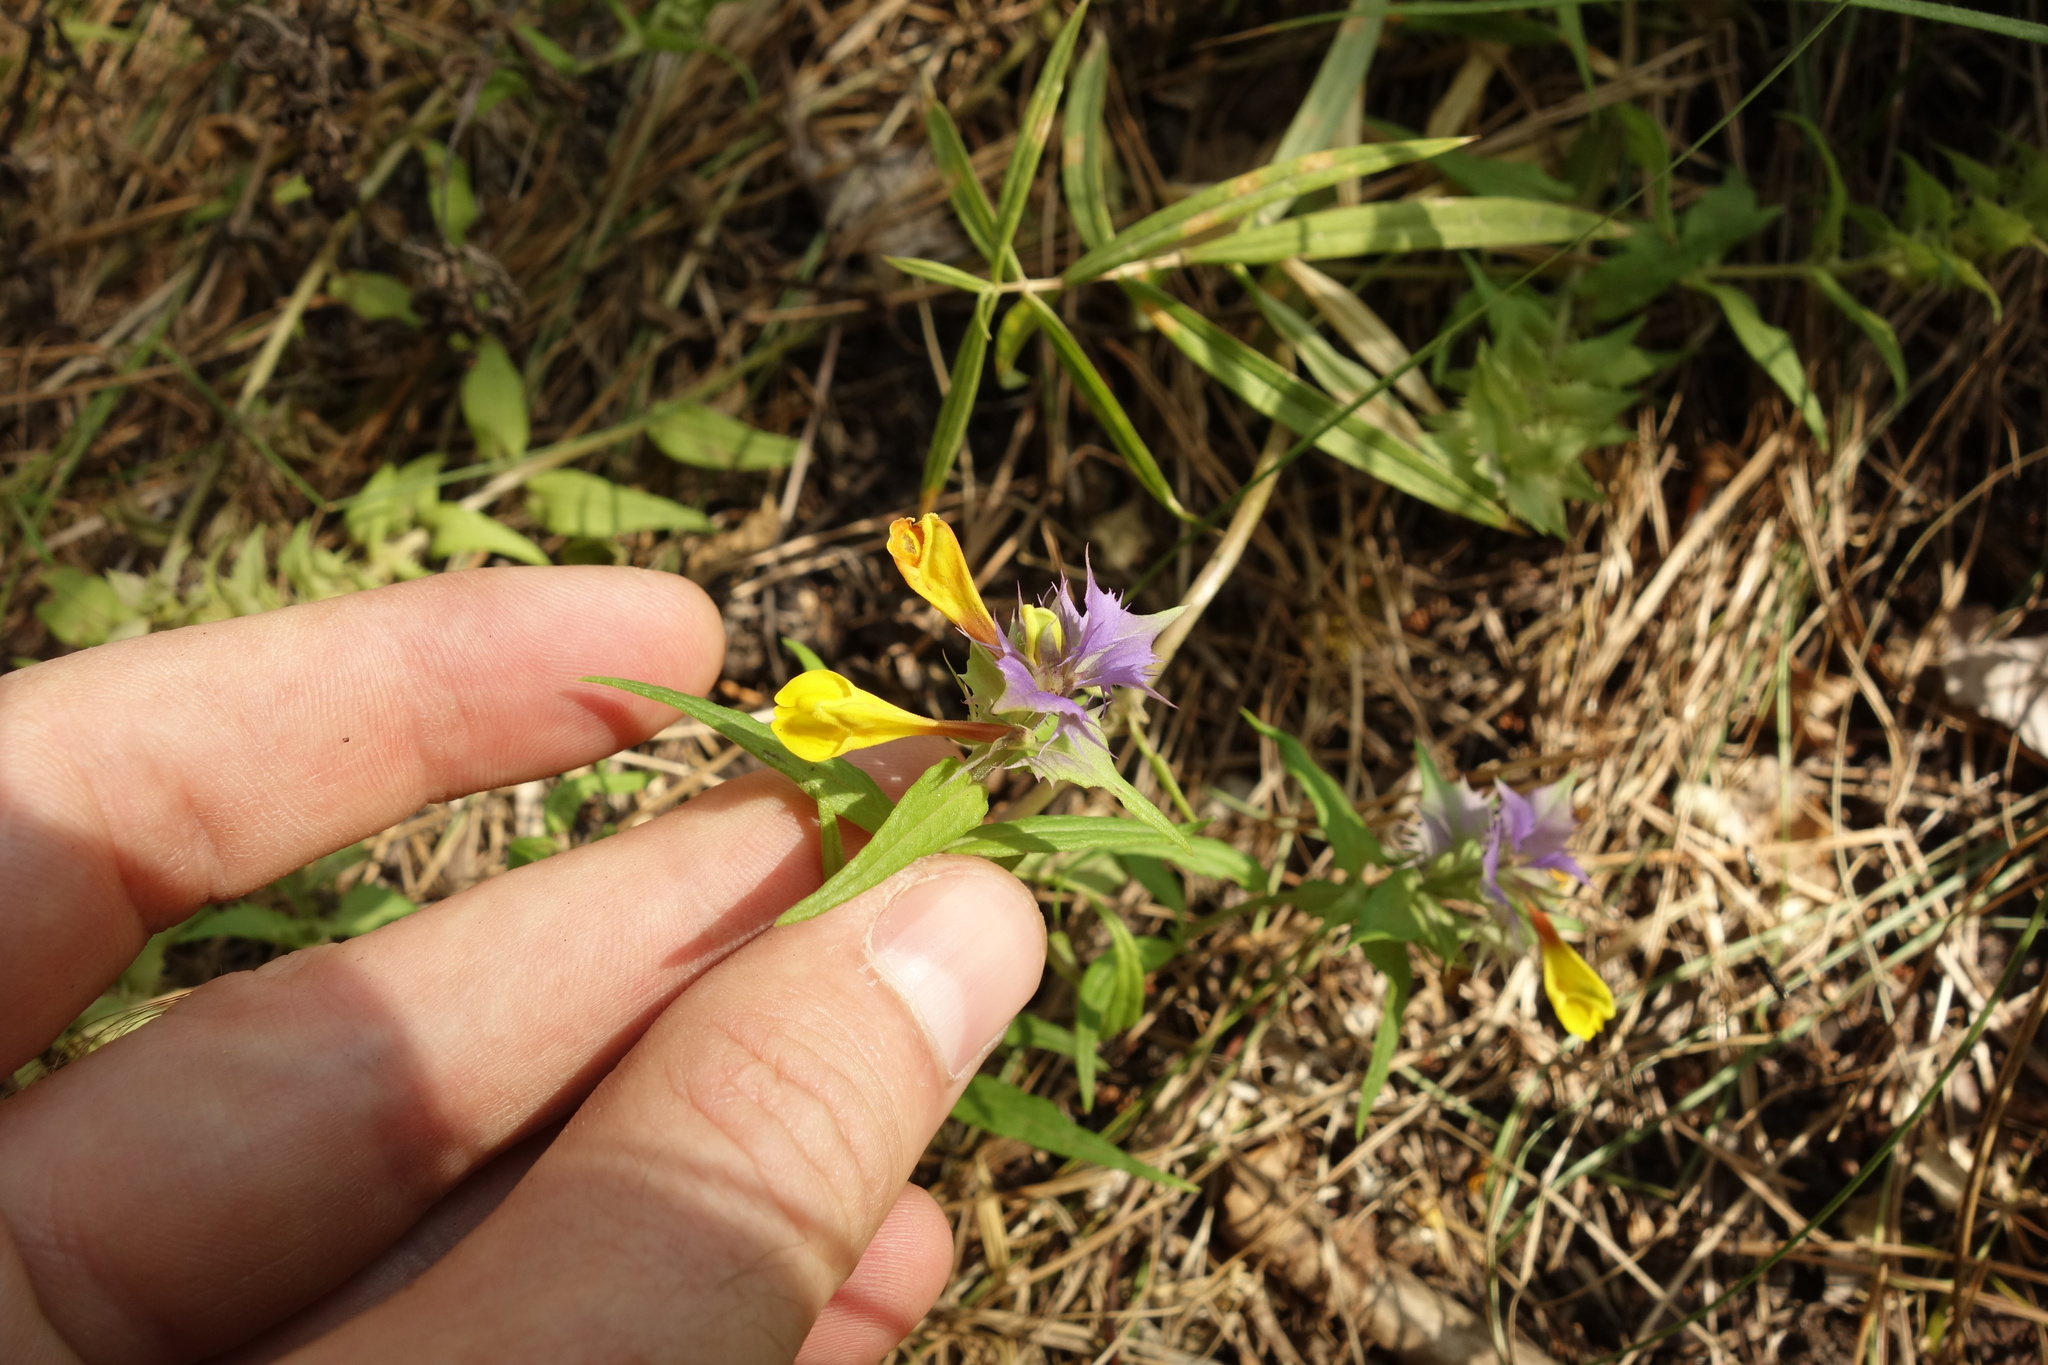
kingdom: Plantae
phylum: Tracheophyta
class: Magnoliopsida
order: Lamiales
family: Orobanchaceae
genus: Melampyrum
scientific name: Melampyrum nemorosum
